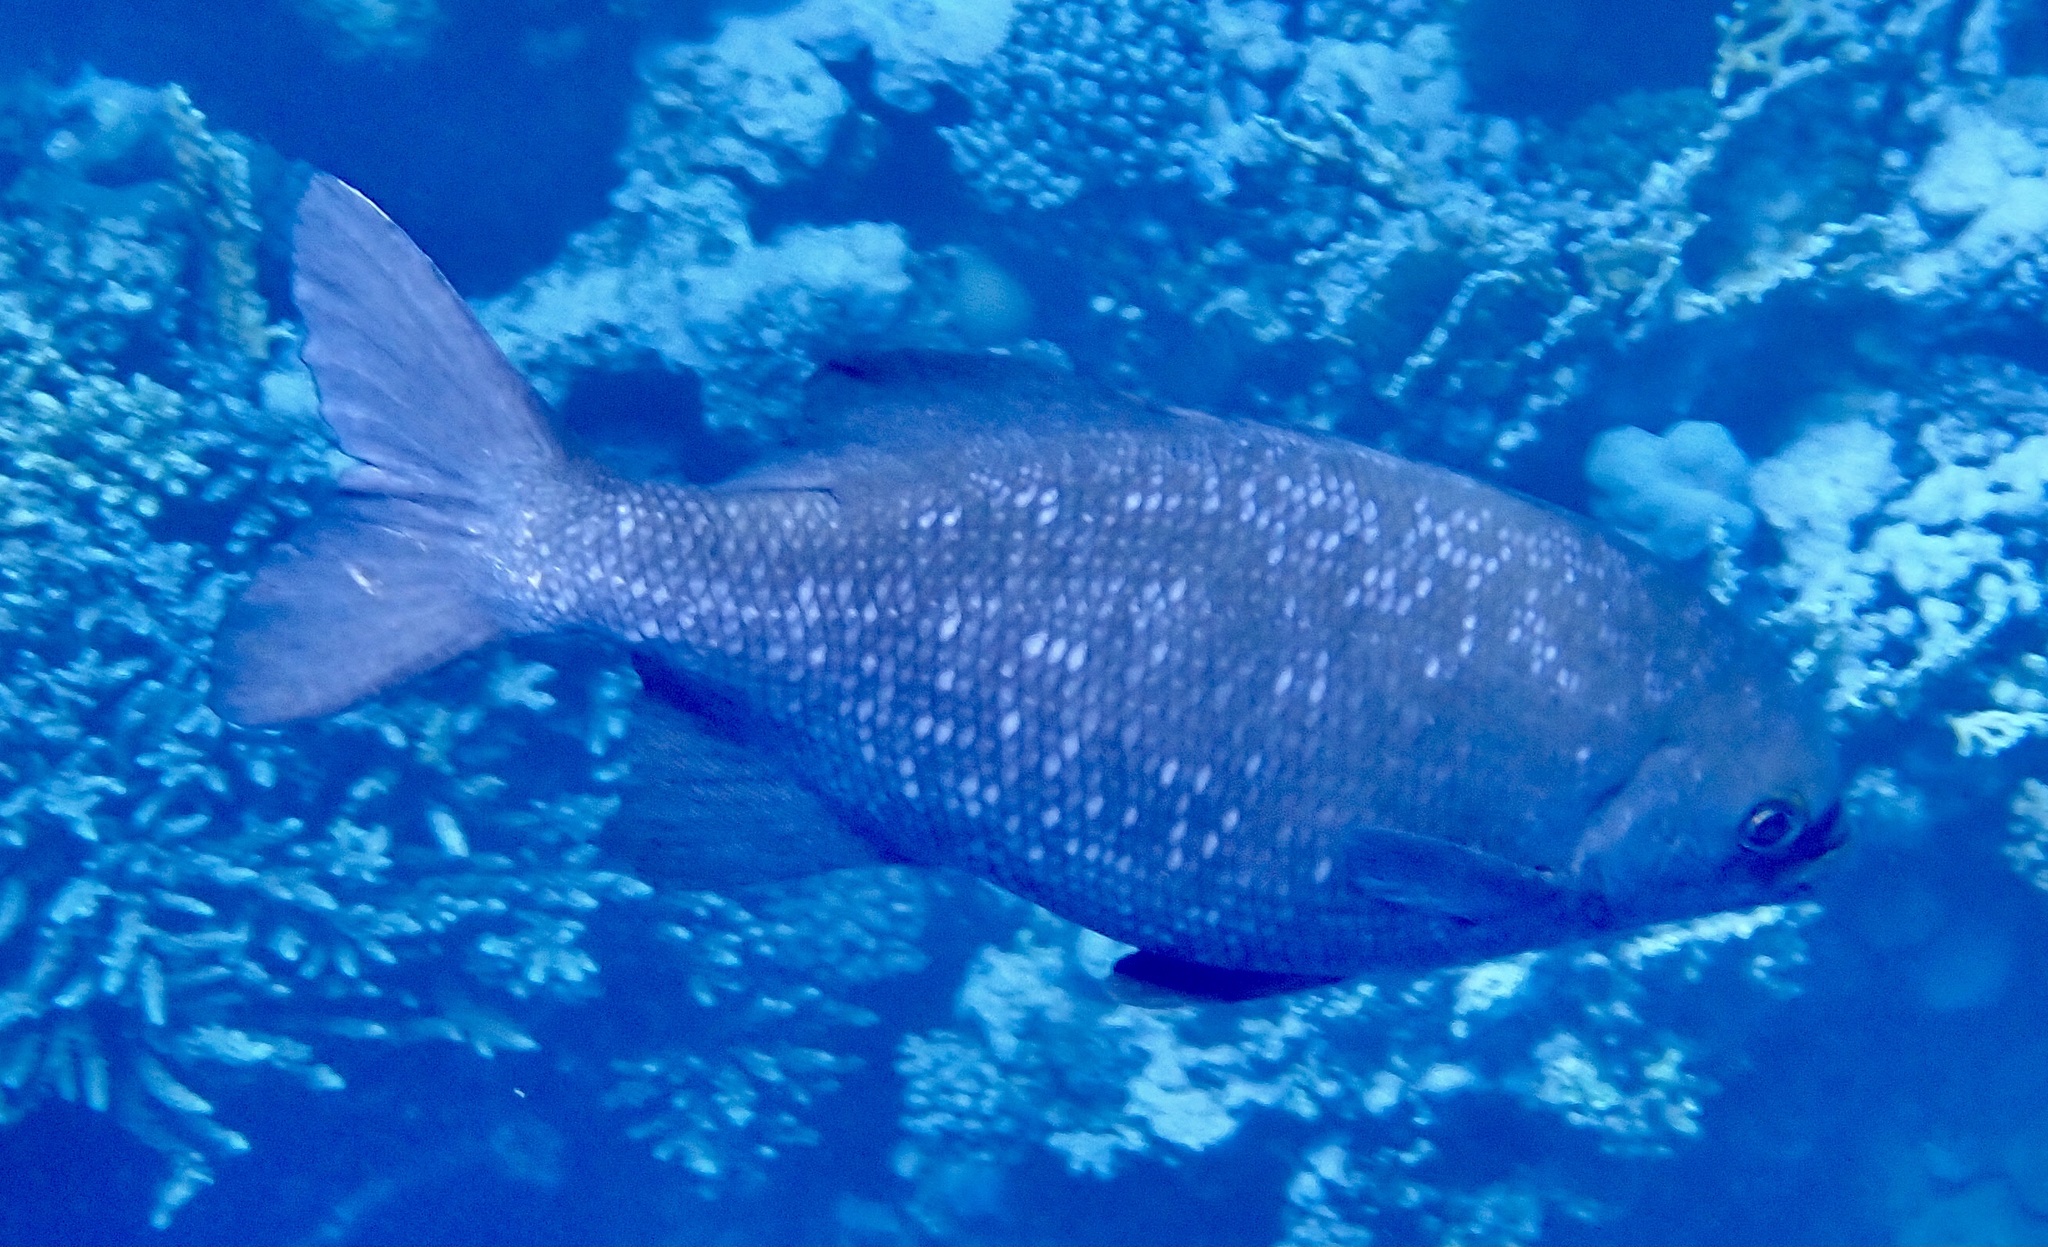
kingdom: Animalia
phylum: Chordata
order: Perciformes
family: Kyphosidae
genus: Kyphosus
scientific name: Kyphosus cinerascens
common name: Topsail drummer
